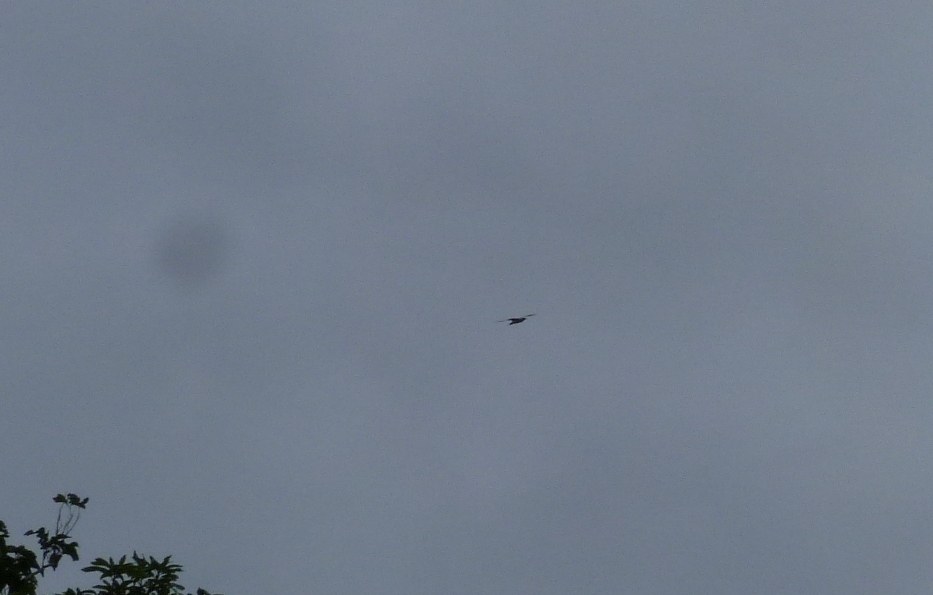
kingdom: Animalia
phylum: Chordata
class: Aves
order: Phaethontiformes
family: Phaethontidae
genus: Phaethon
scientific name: Phaethon rubricauda
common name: Red-tailed tropicbird
